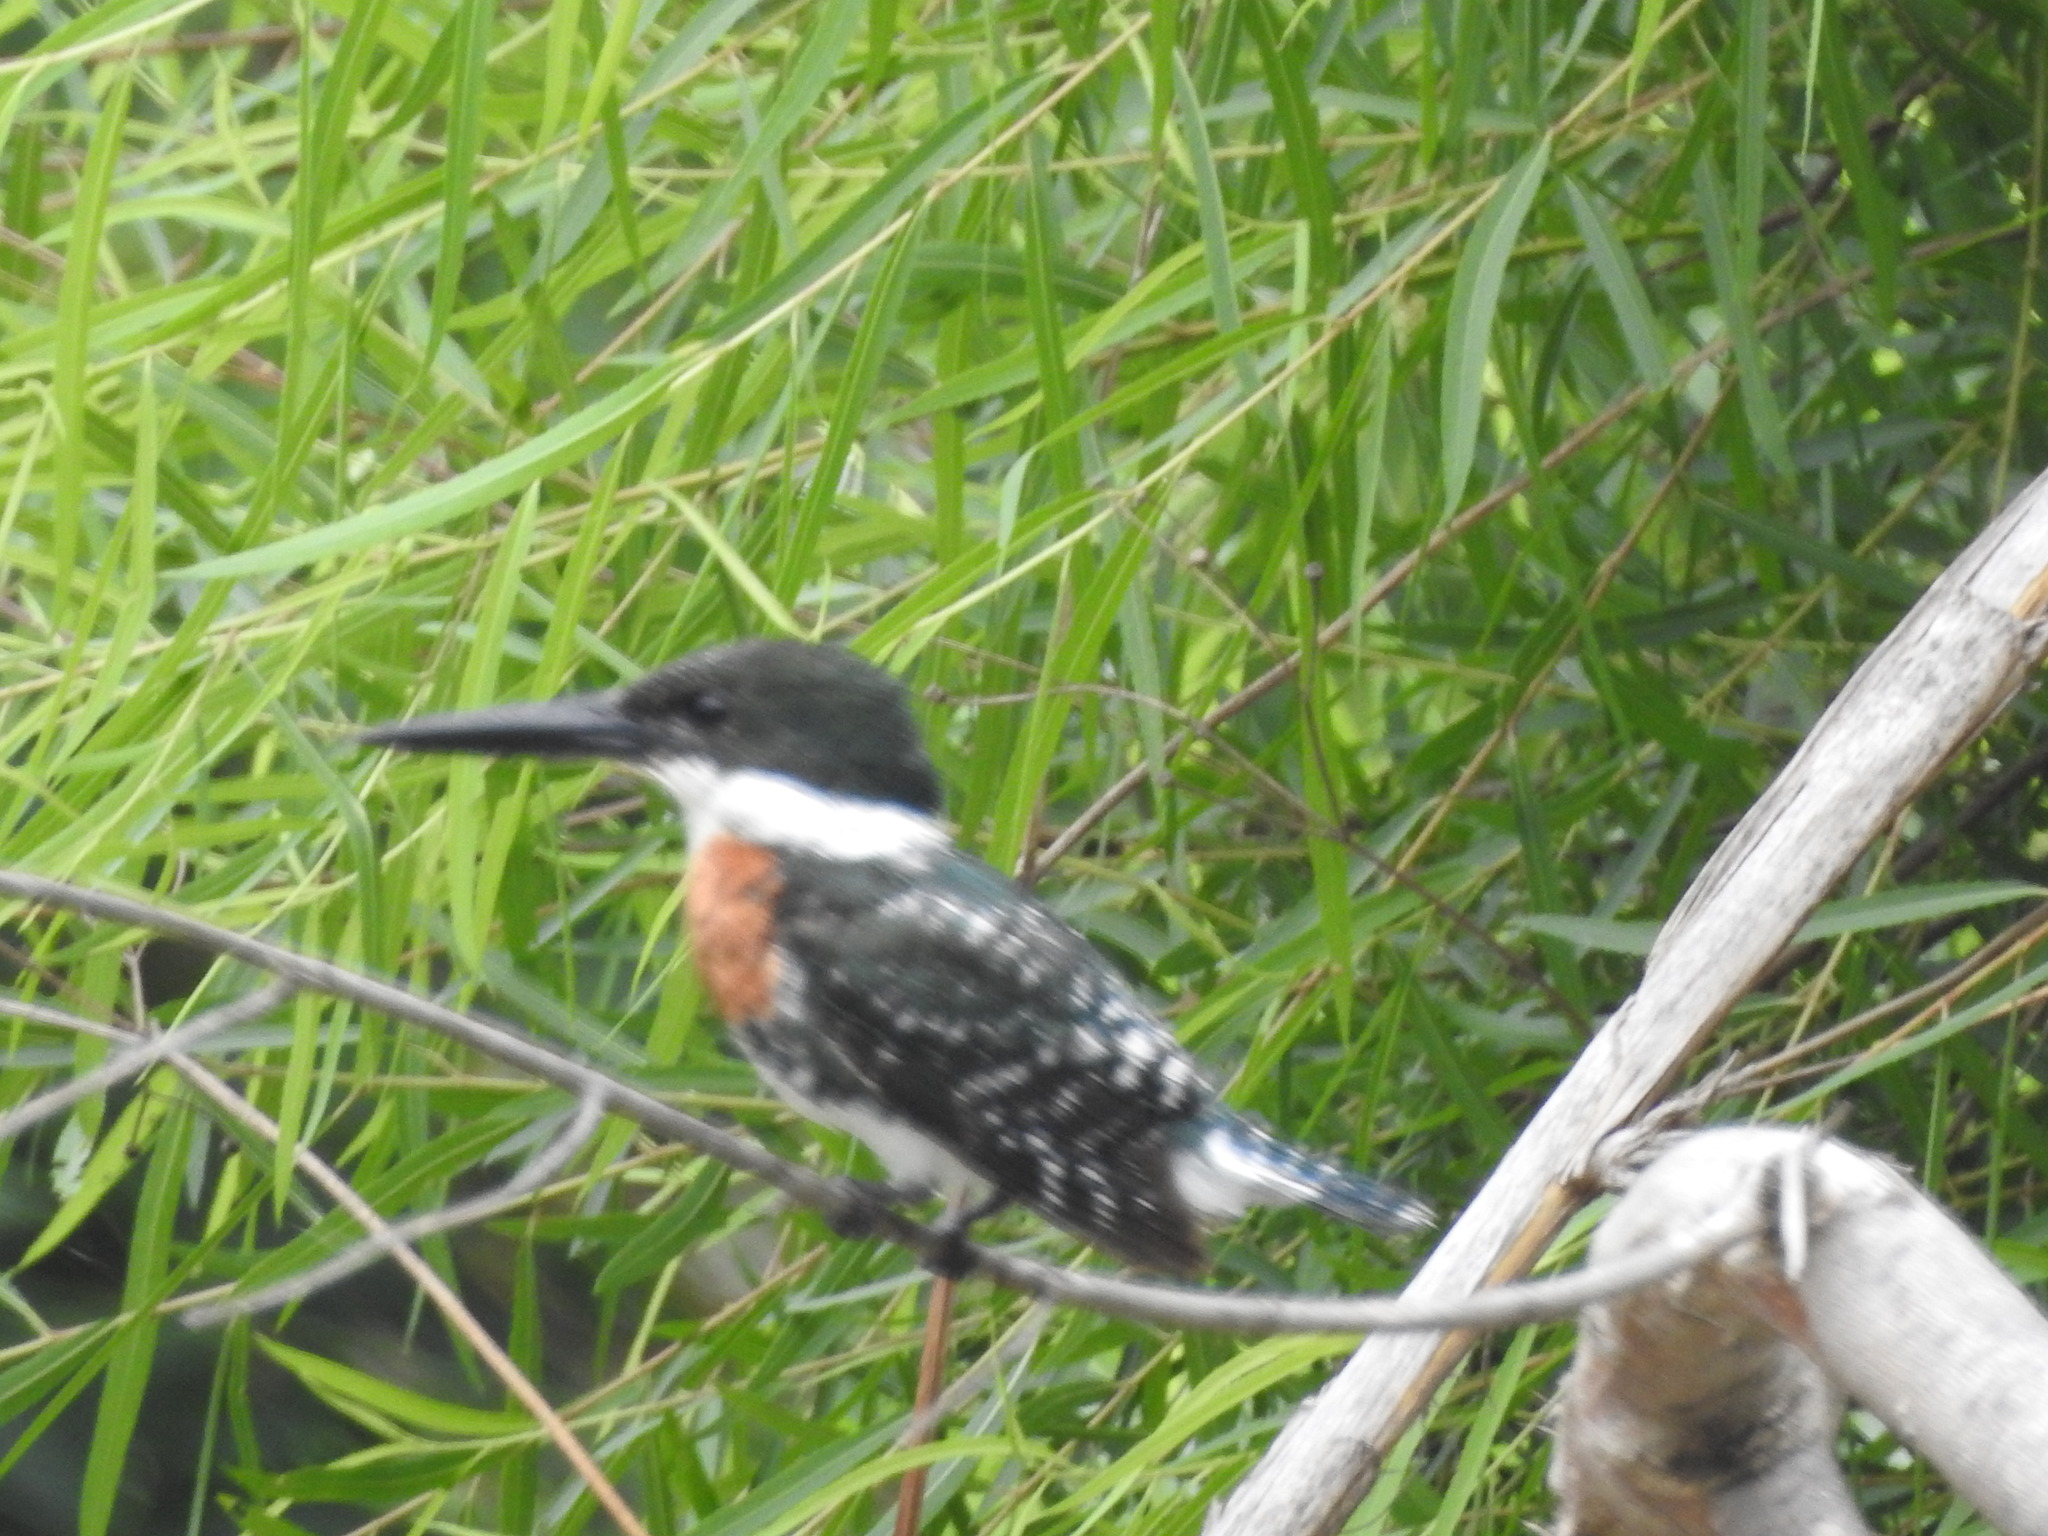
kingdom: Animalia
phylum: Chordata
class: Aves
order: Coraciiformes
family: Alcedinidae
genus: Chloroceryle
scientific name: Chloroceryle americana
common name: Green kingfisher
